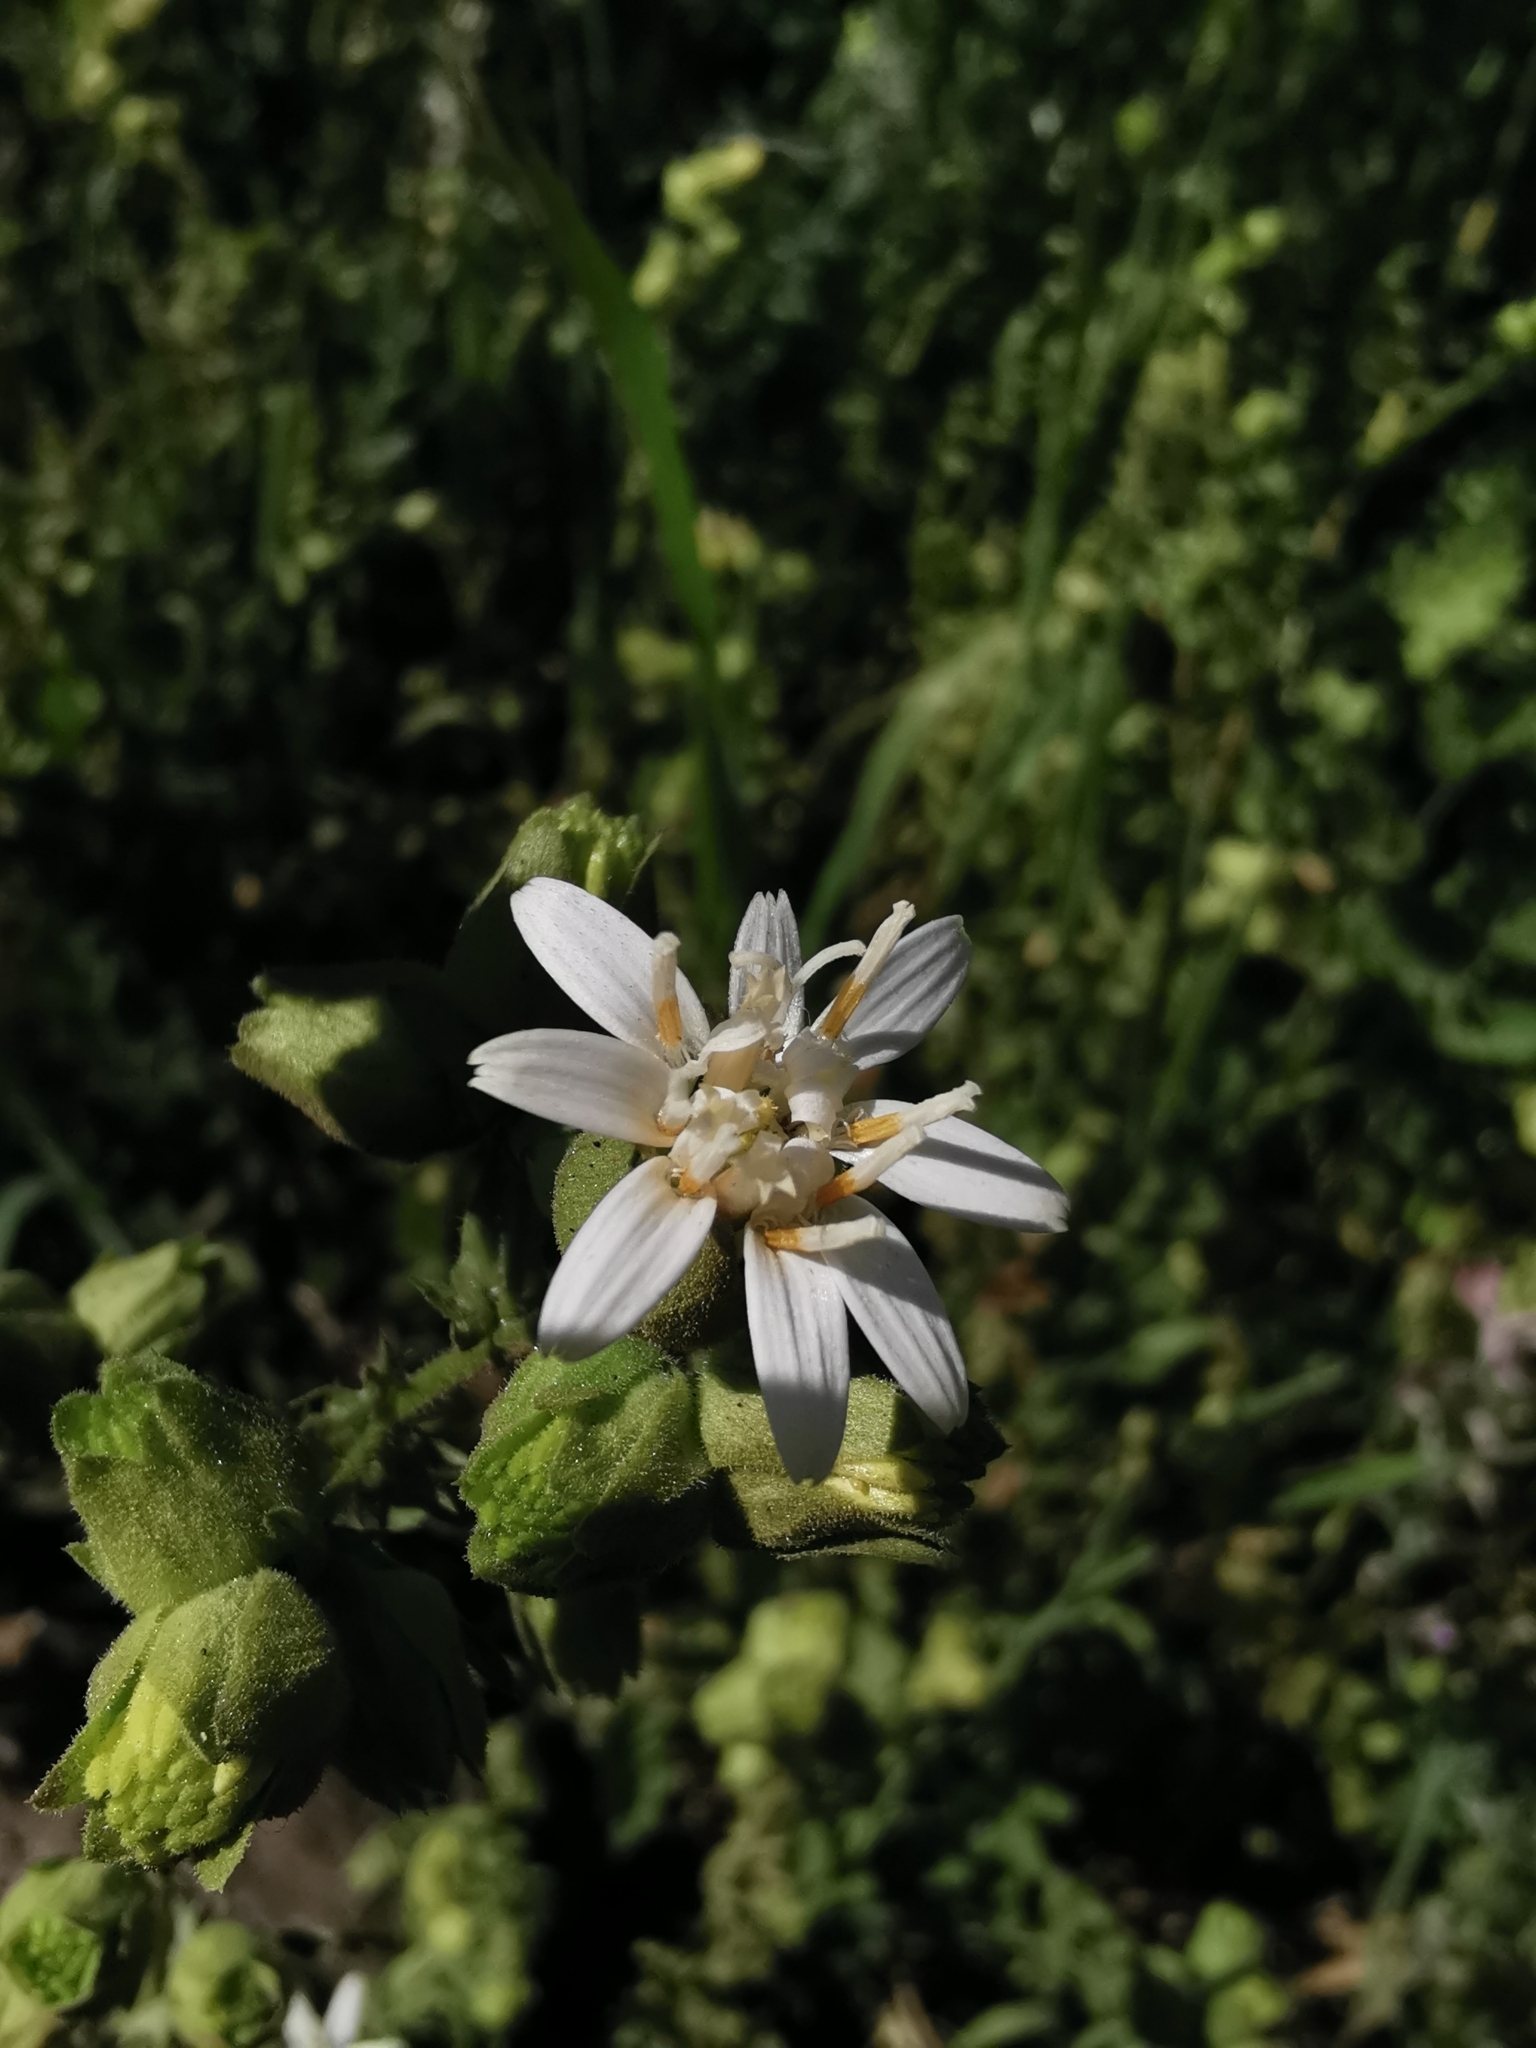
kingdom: Plantae
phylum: Tracheophyta
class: Magnoliopsida
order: Asterales
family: Asteraceae
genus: Moscharia
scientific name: Moscharia pinnatifida
